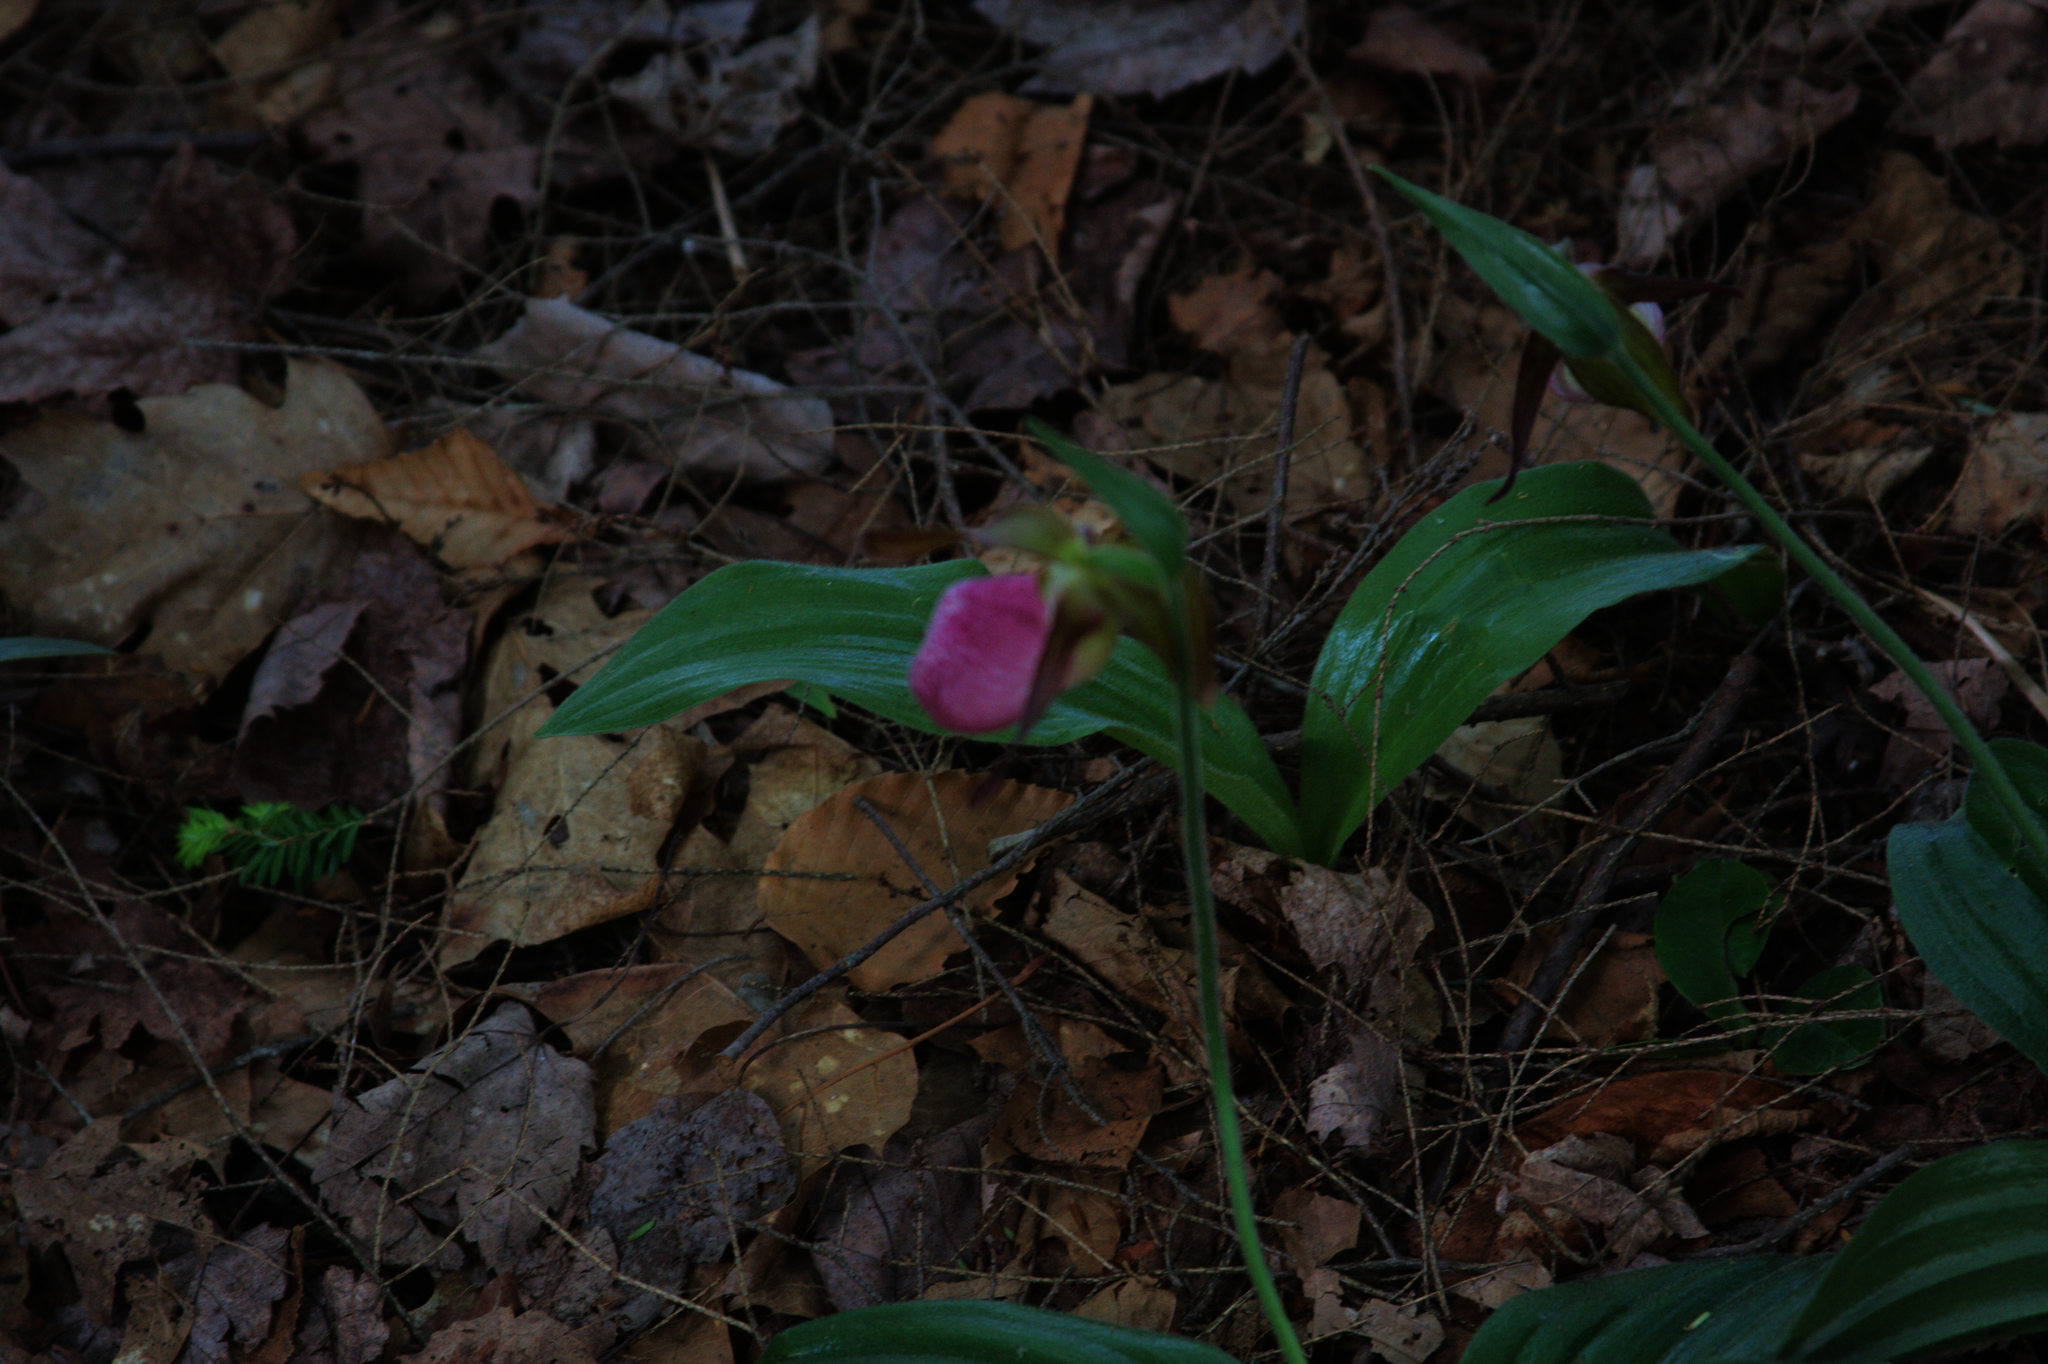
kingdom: Plantae
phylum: Tracheophyta
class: Liliopsida
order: Asparagales
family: Orchidaceae
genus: Cypripedium
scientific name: Cypripedium acaule
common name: Pink lady's-slipper
